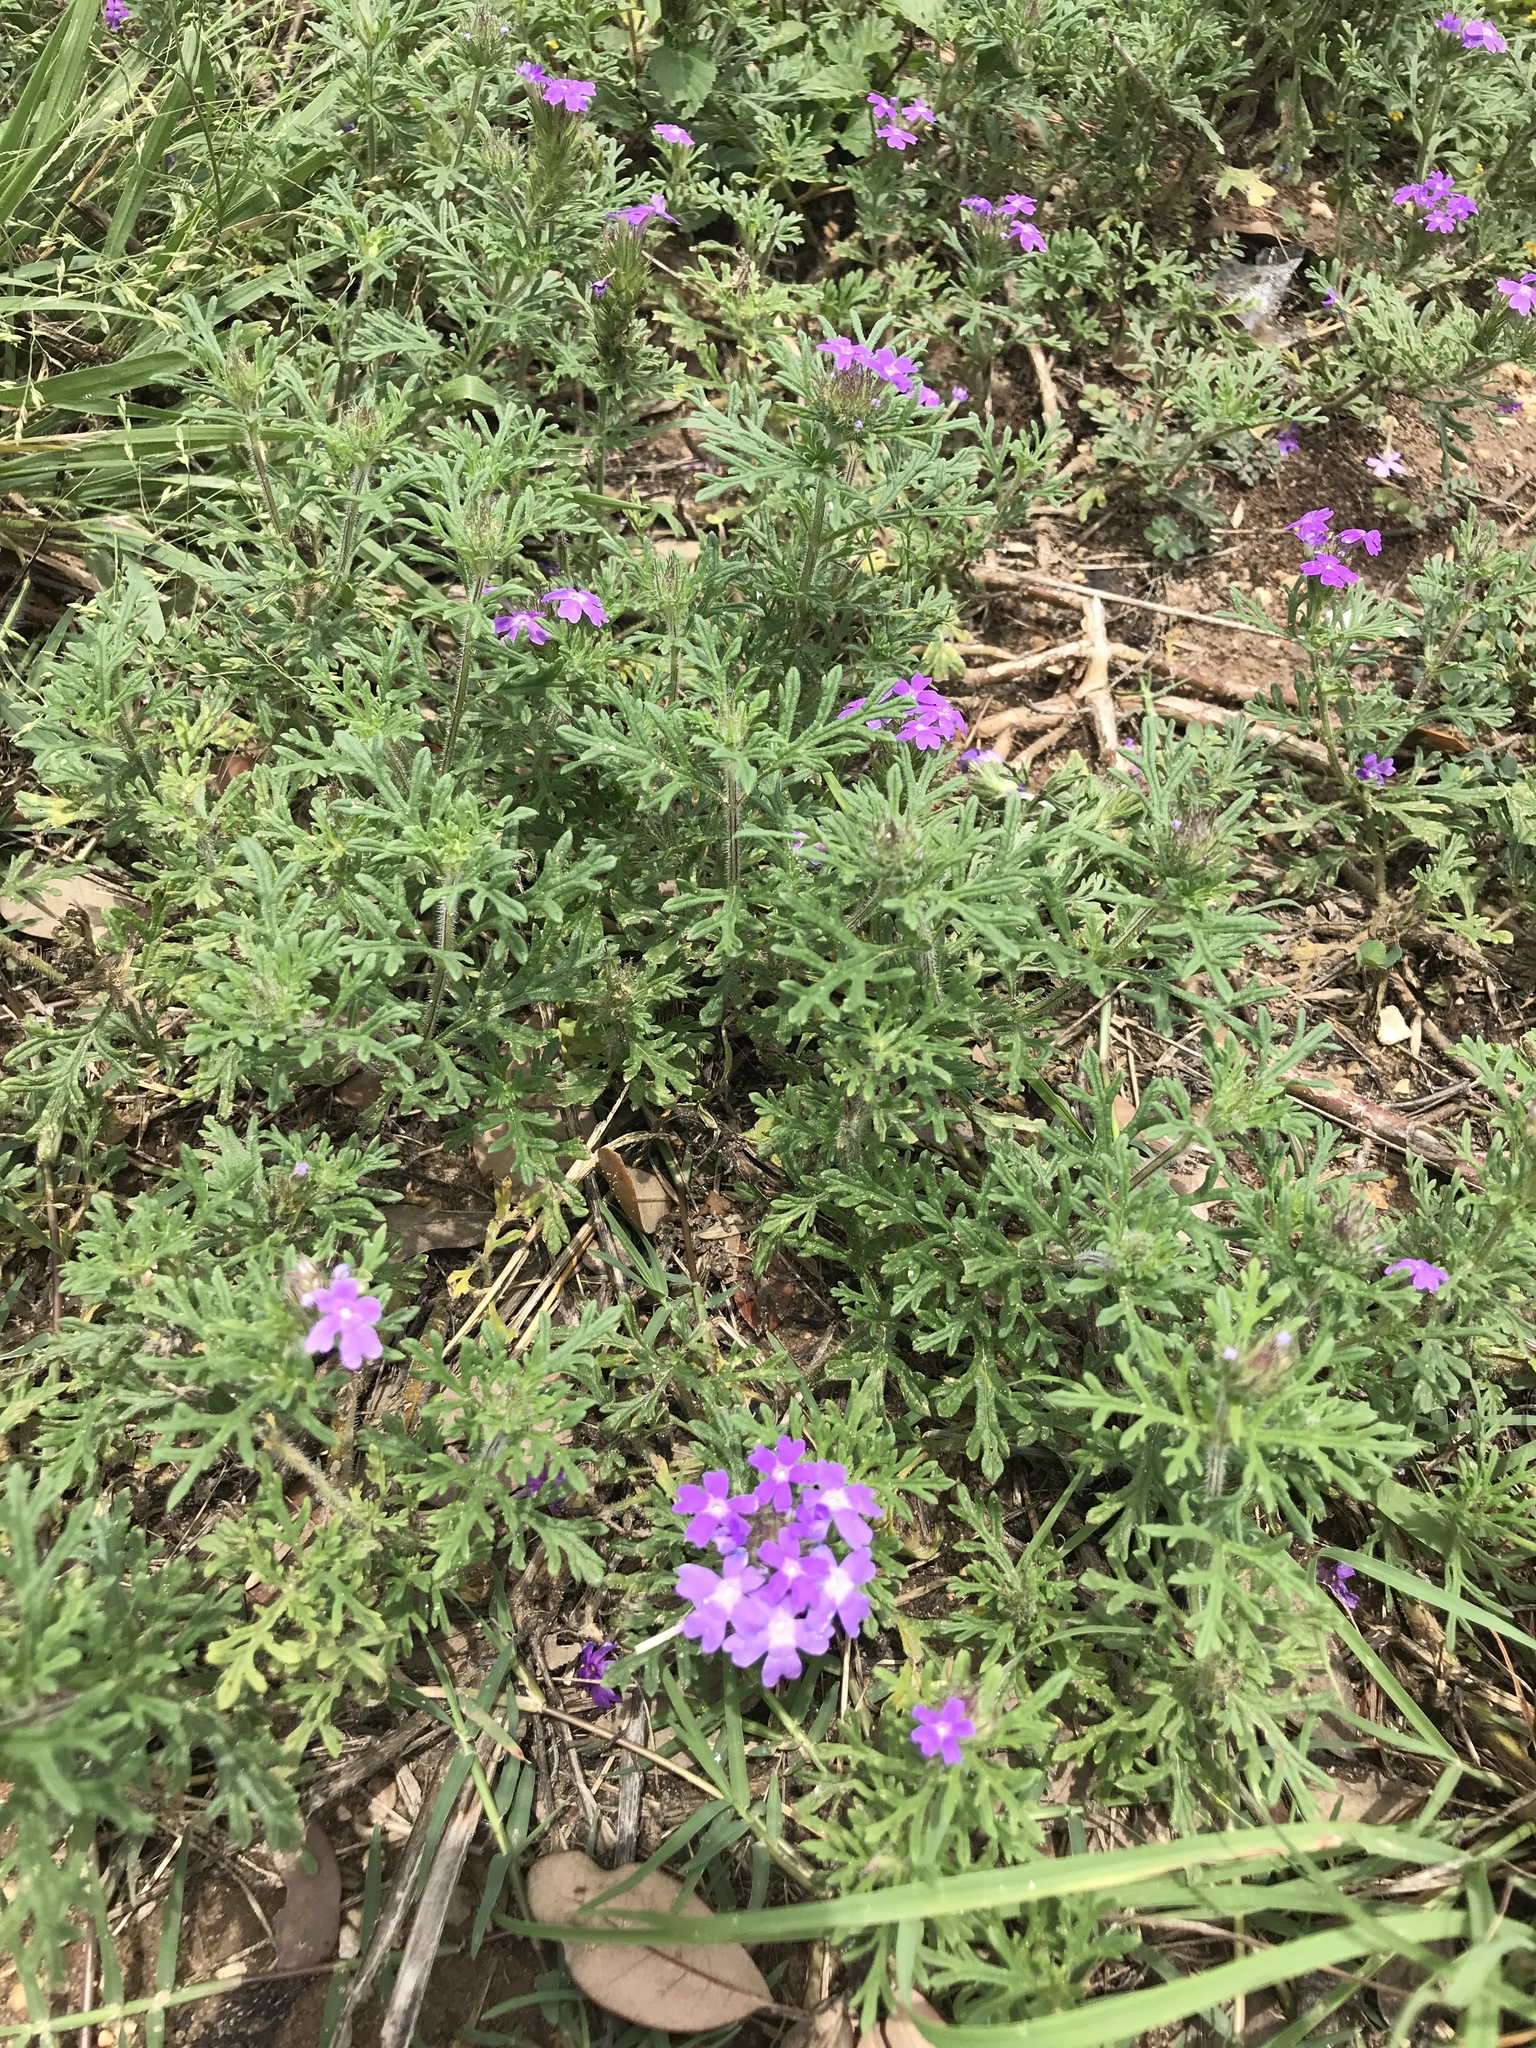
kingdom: Plantae
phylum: Tracheophyta
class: Magnoliopsida
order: Lamiales
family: Verbenaceae
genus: Verbena
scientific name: Verbena bipinnatifida
